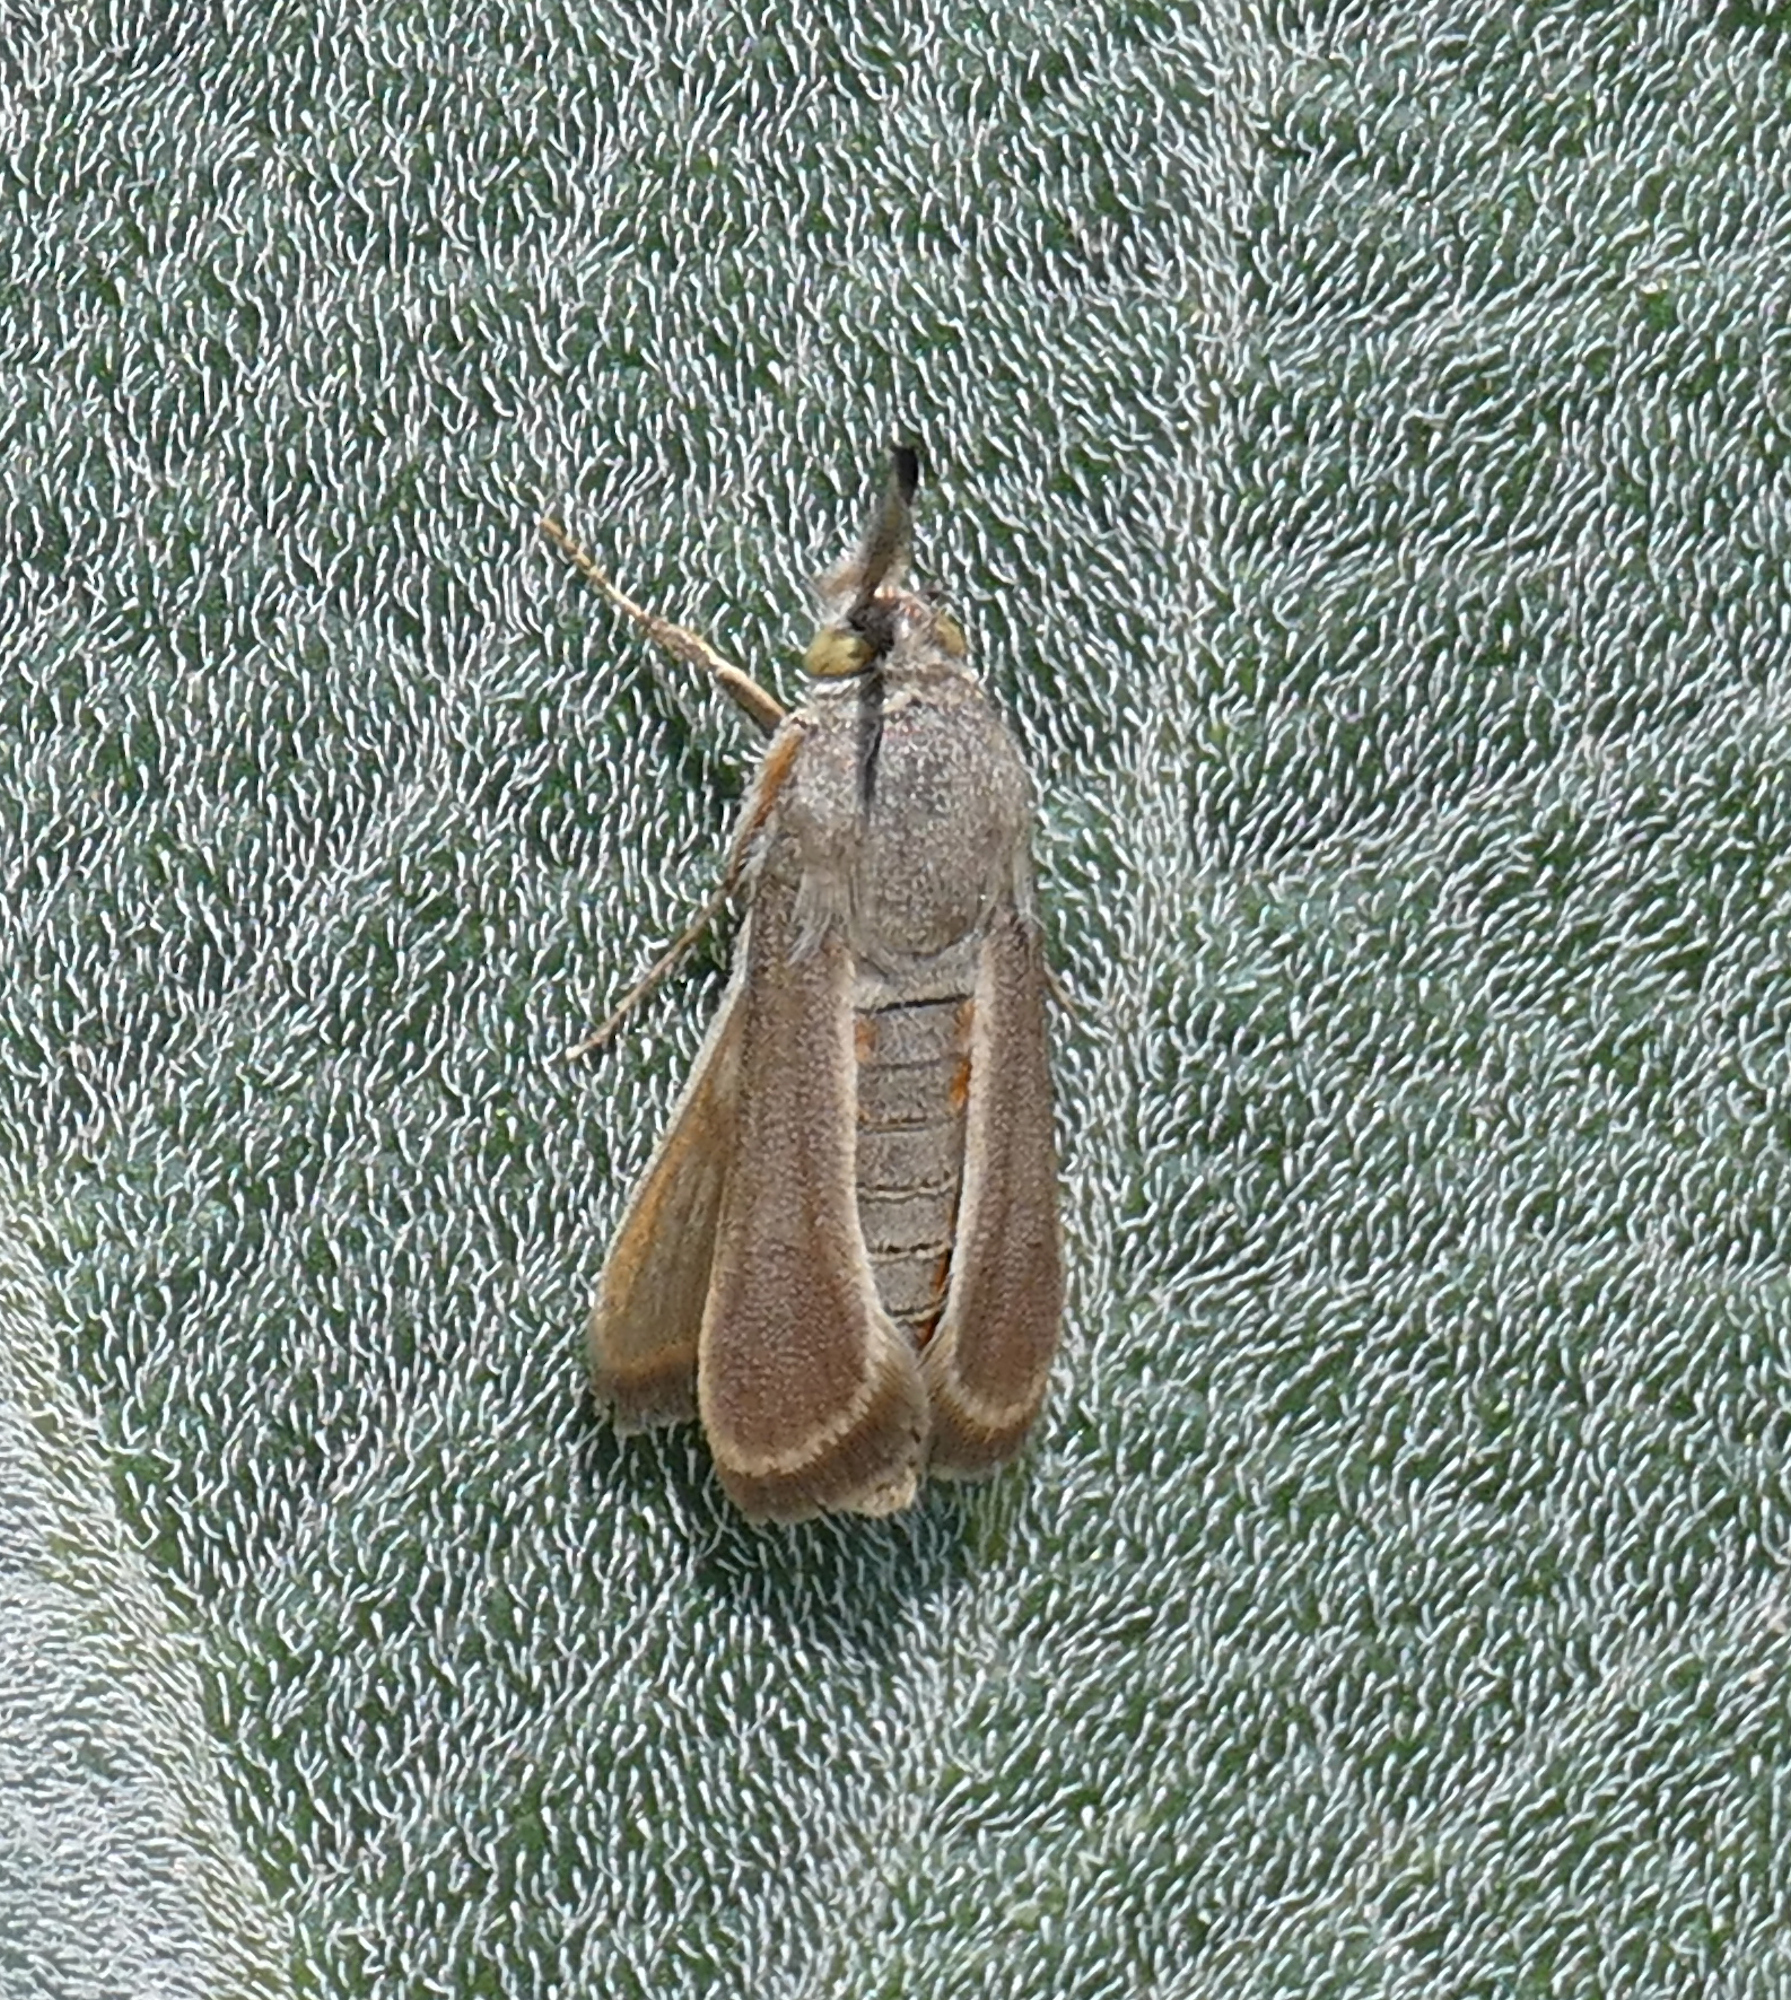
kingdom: Animalia
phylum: Arthropoda
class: Insecta
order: Lepidoptera
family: Sesiidae
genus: Eichlinia
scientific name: Eichlinia snowii
